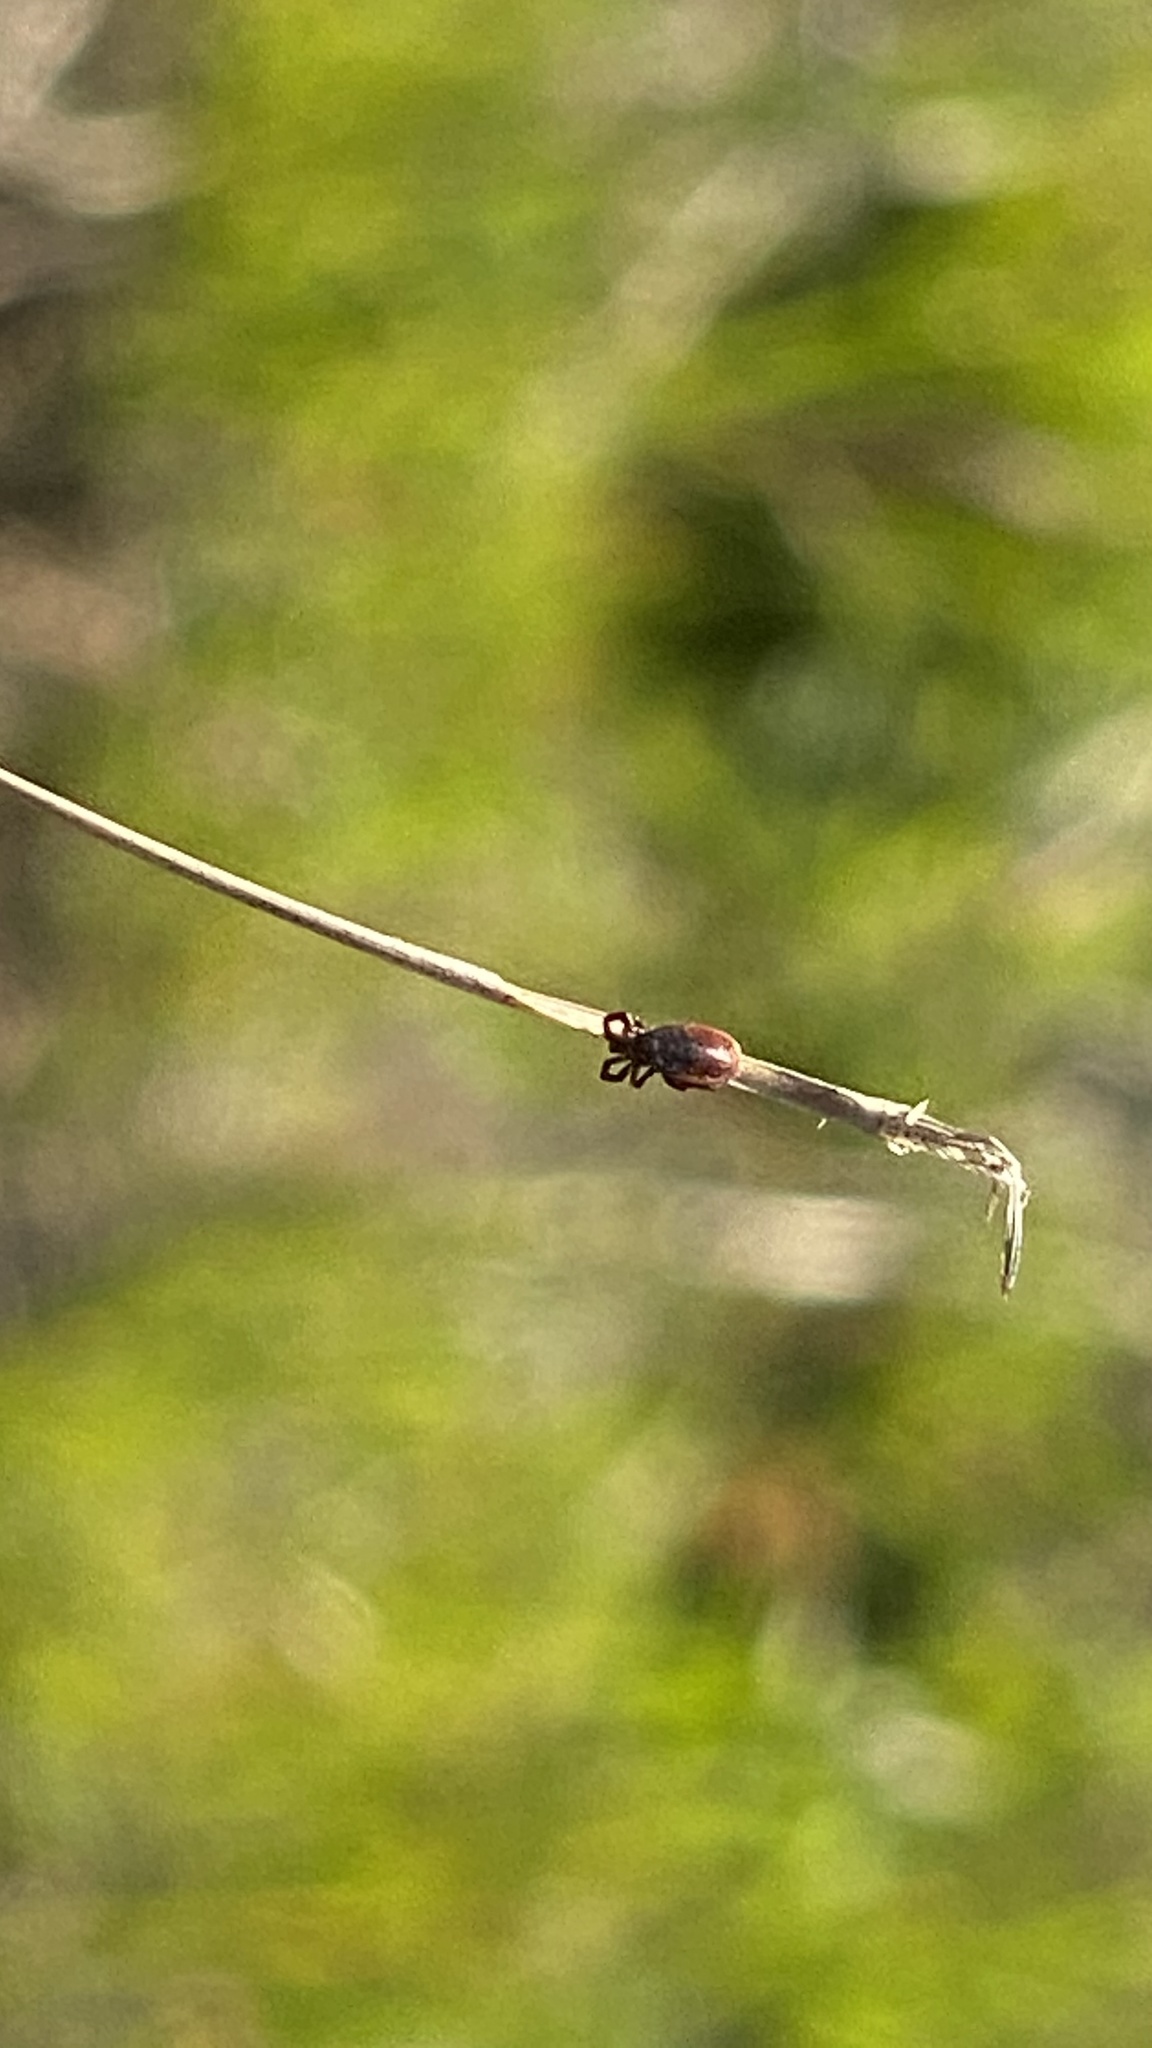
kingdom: Animalia
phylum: Arthropoda
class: Arachnida
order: Ixodida
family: Ixodidae
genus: Ixodes
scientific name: Ixodes pacificus
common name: California black-legged tick
